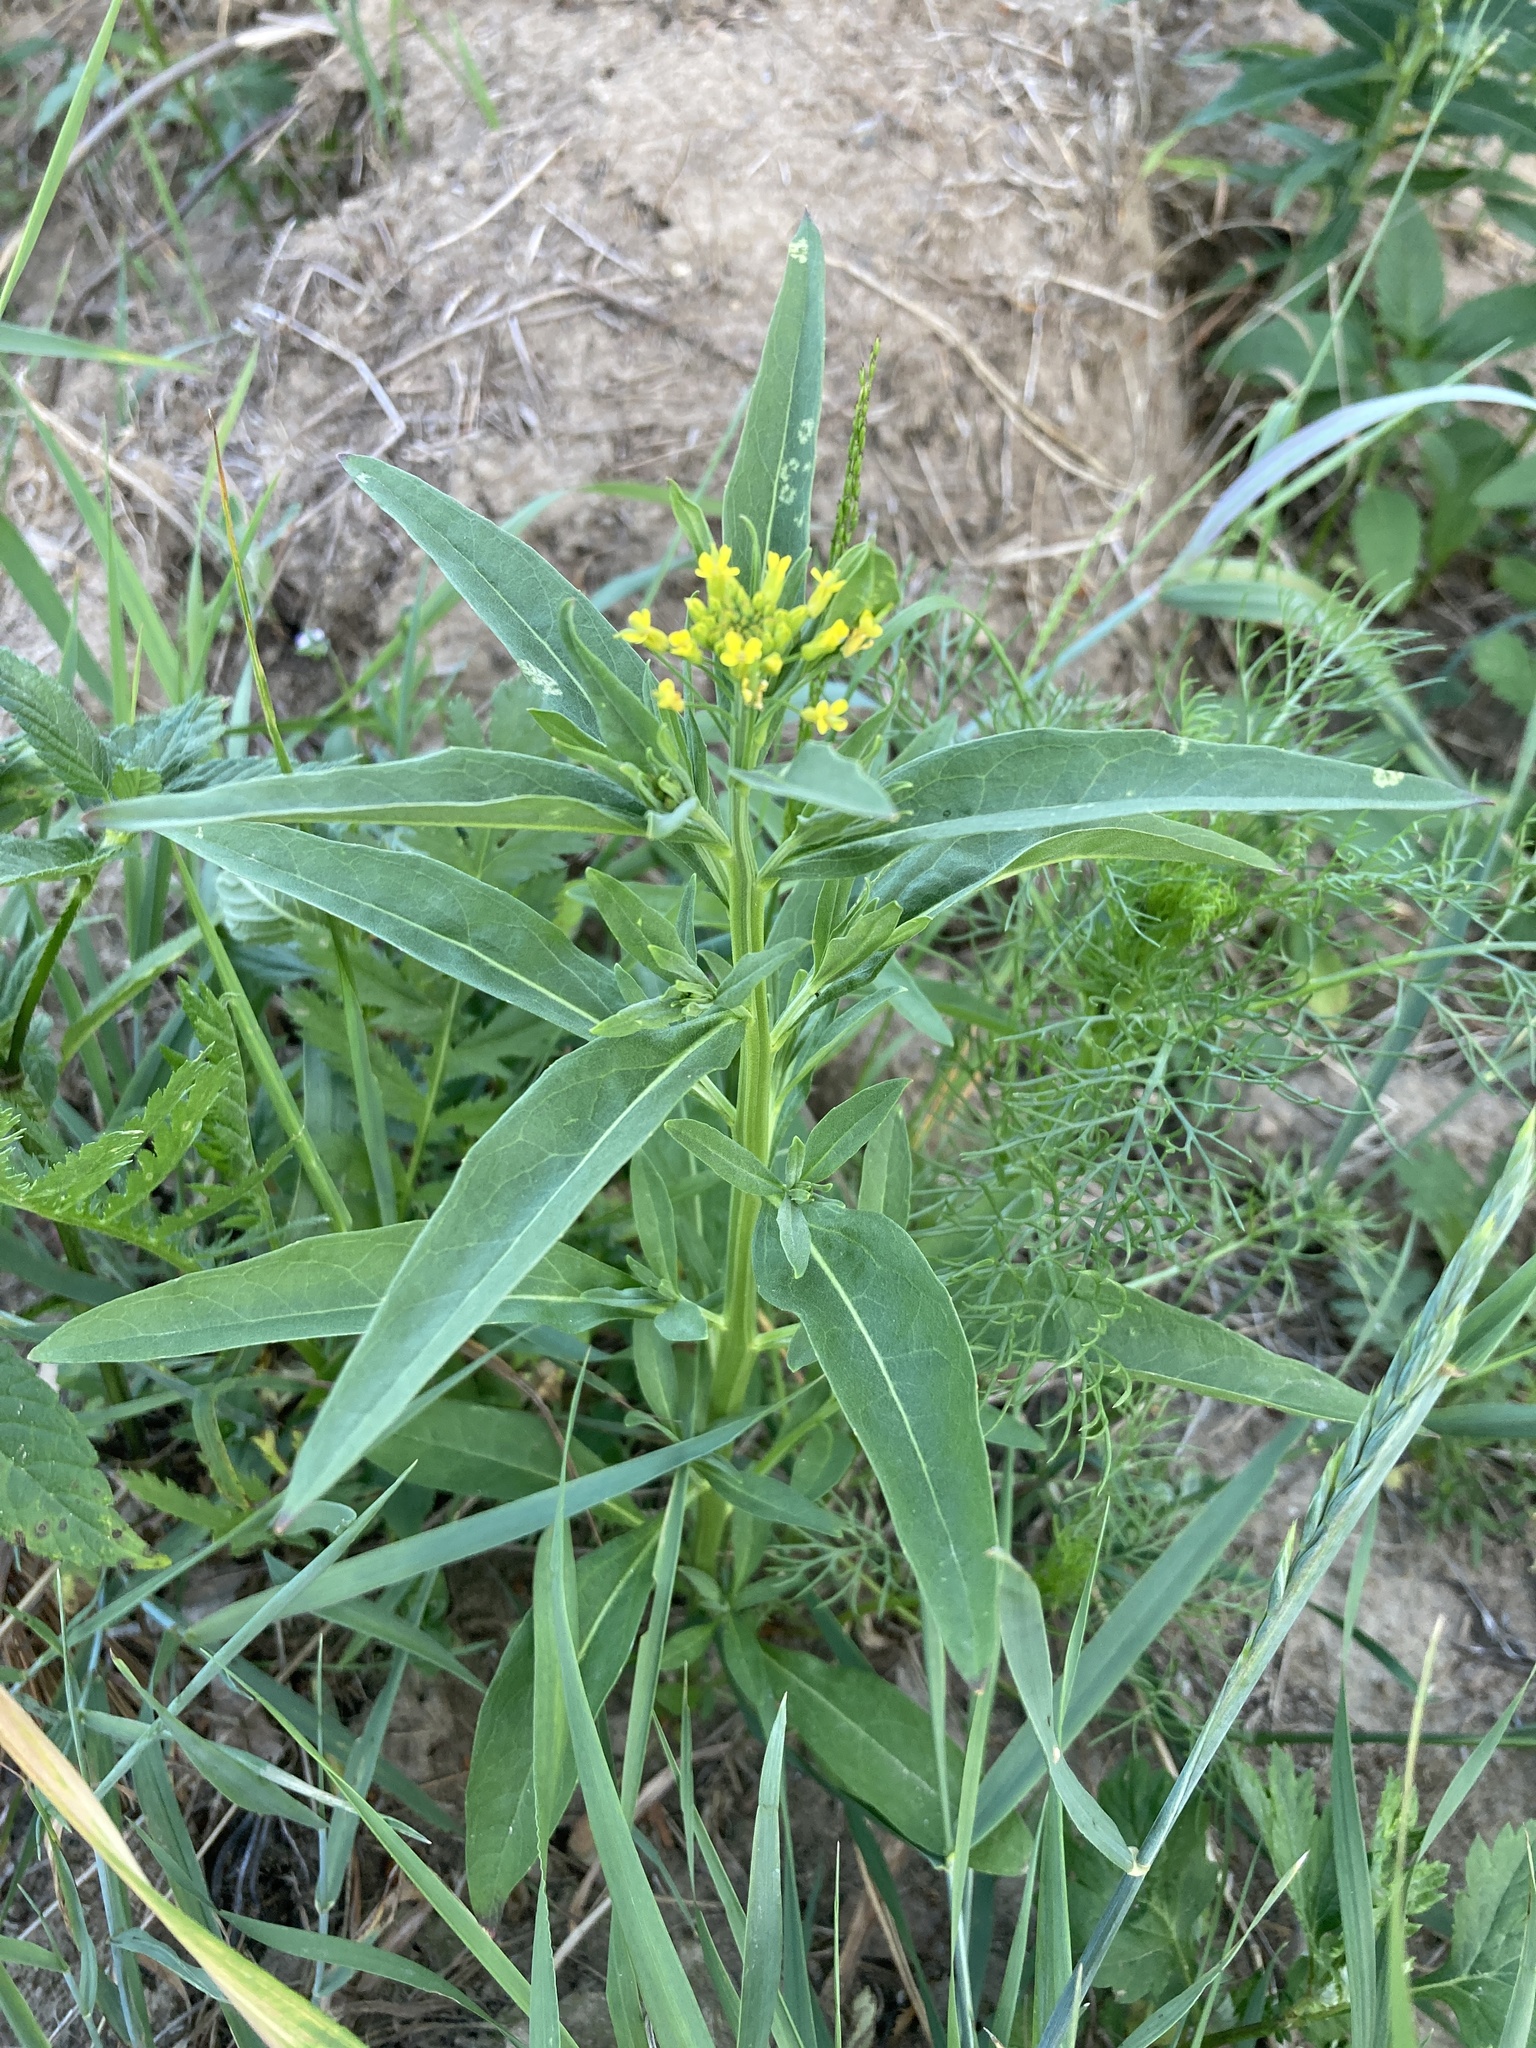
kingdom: Plantae
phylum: Tracheophyta
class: Magnoliopsida
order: Brassicales
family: Brassicaceae
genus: Erysimum
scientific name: Erysimum cheiranthoides
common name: Treacle mustard
